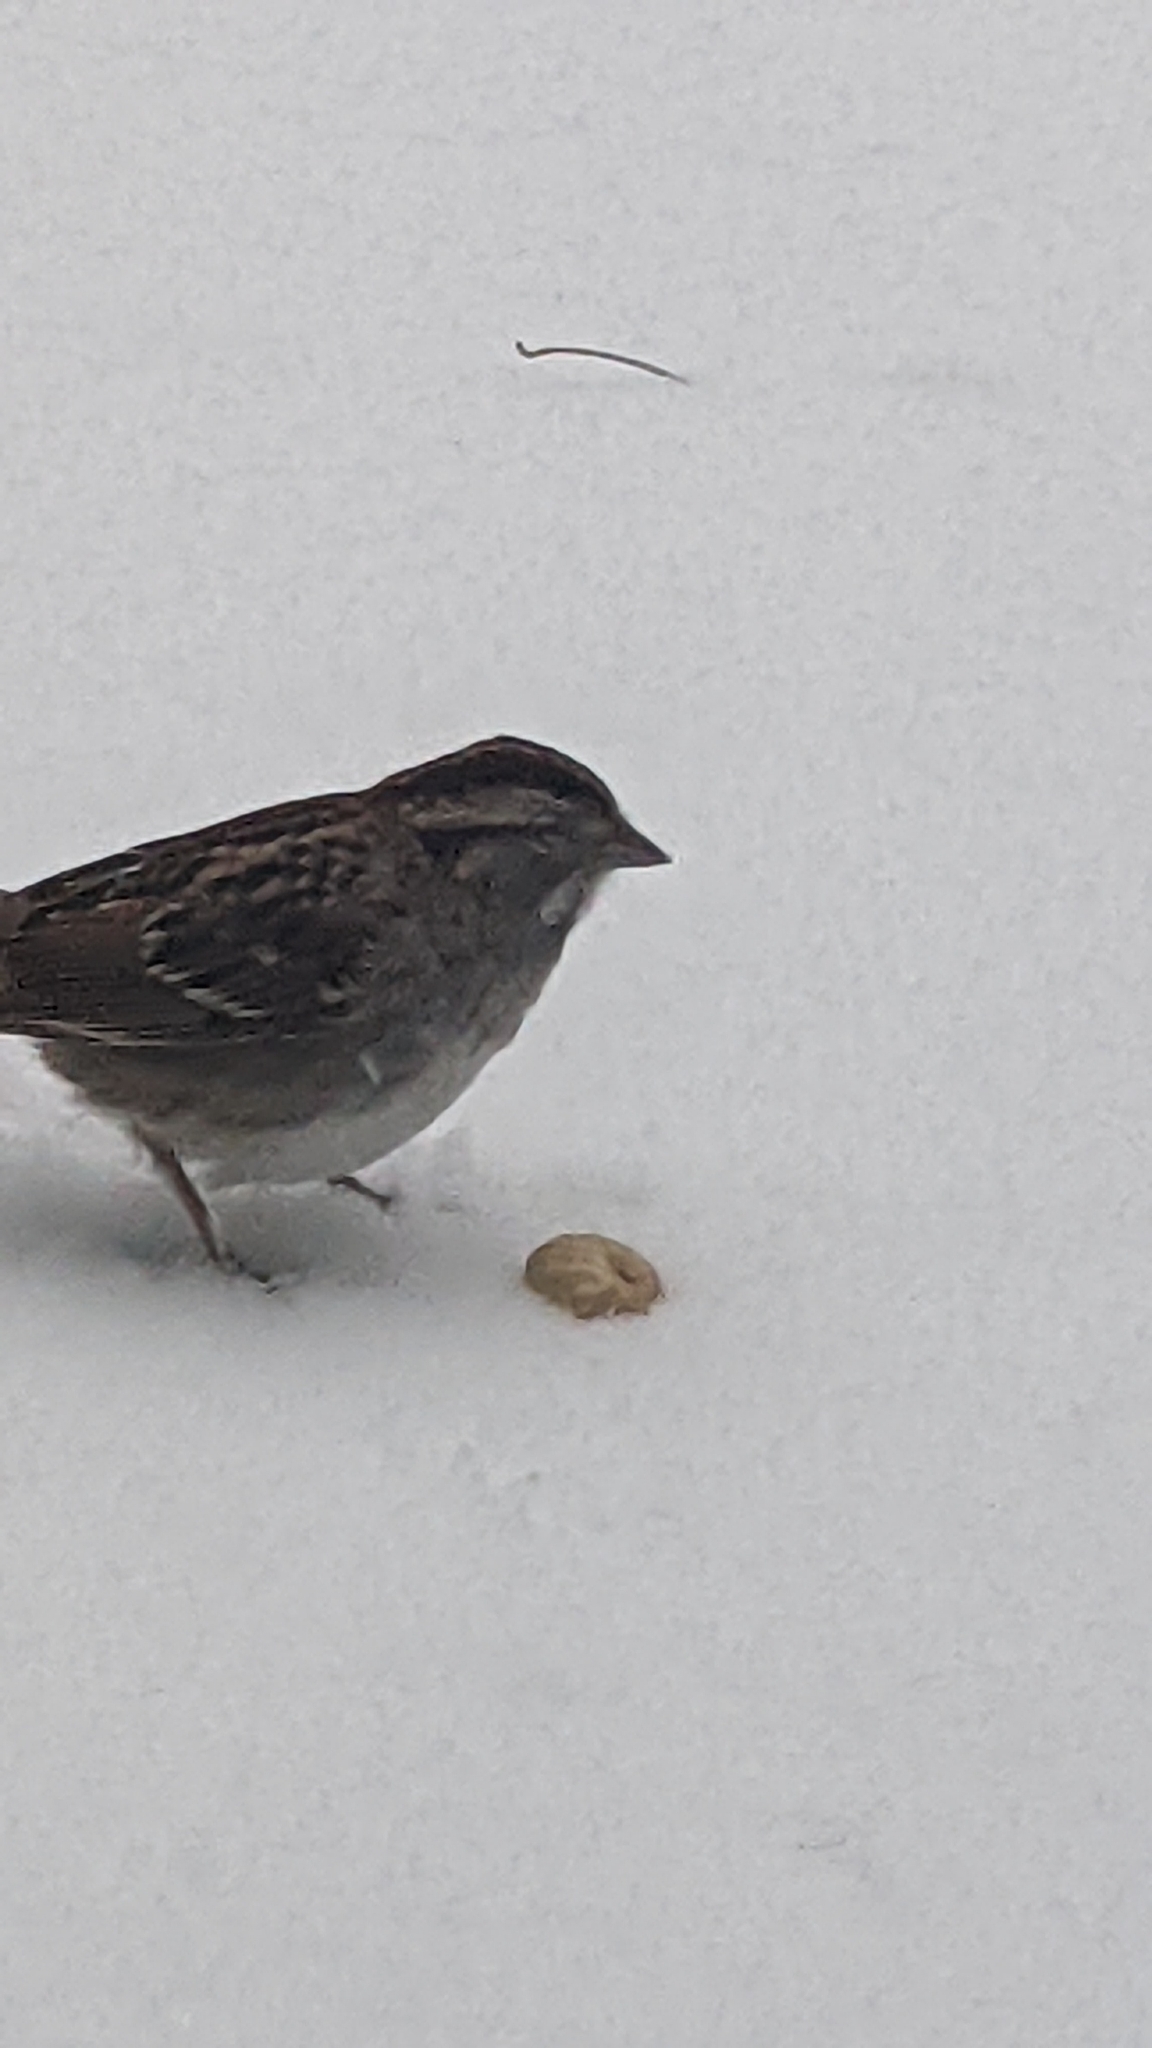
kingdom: Animalia
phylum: Chordata
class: Aves
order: Passeriformes
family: Passerellidae
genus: Zonotrichia
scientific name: Zonotrichia albicollis
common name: White-throated sparrow
